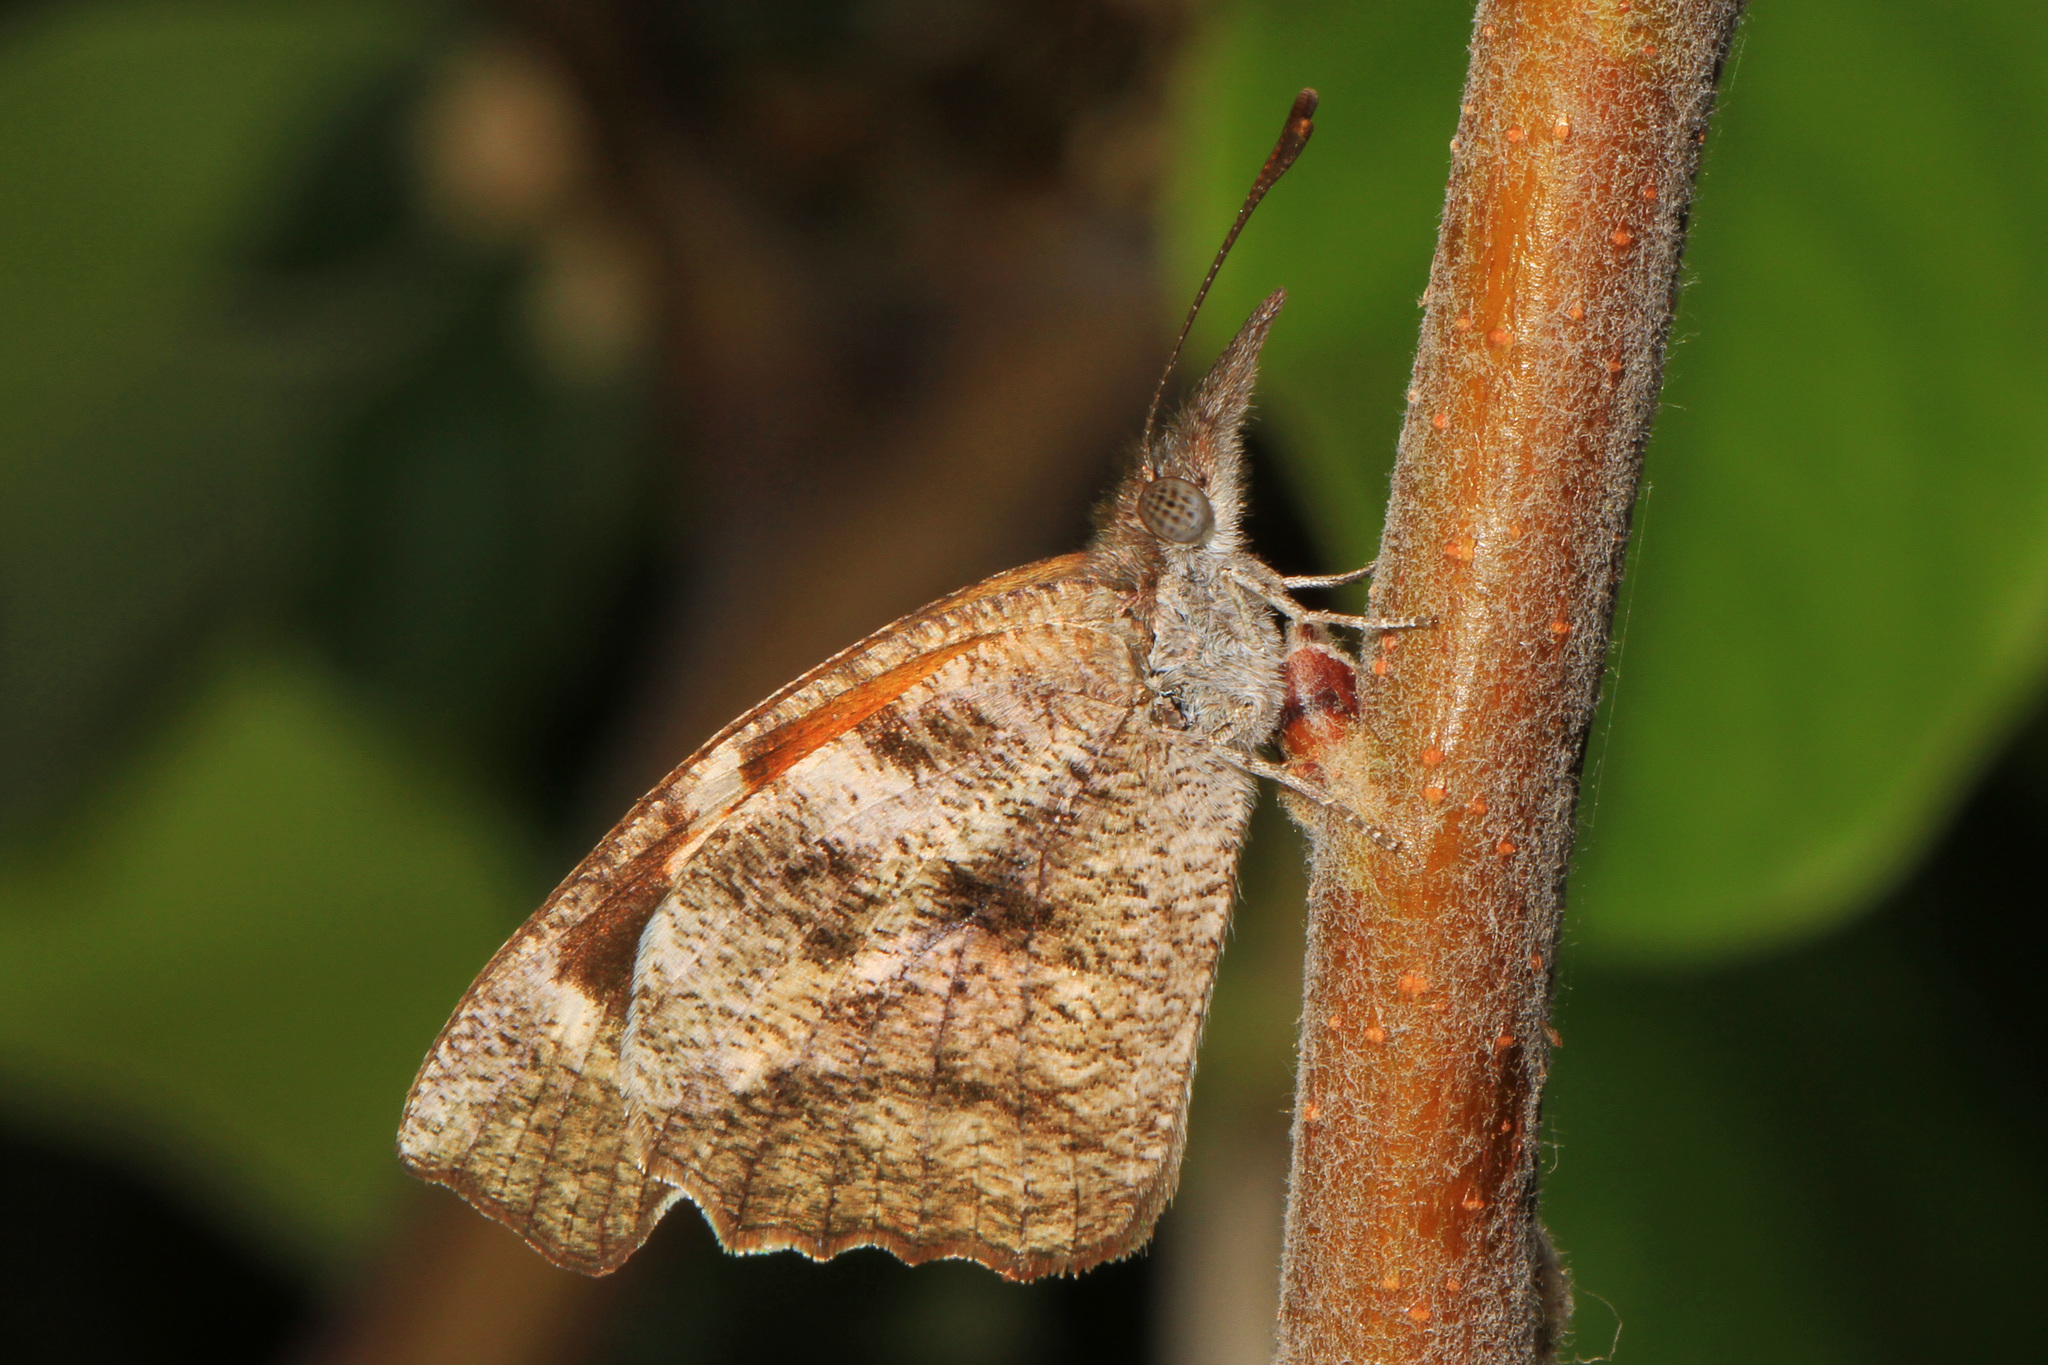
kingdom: Animalia
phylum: Arthropoda
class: Insecta
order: Lepidoptera
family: Nymphalidae
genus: Libytheana
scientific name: Libytheana carinenta
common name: American snout
